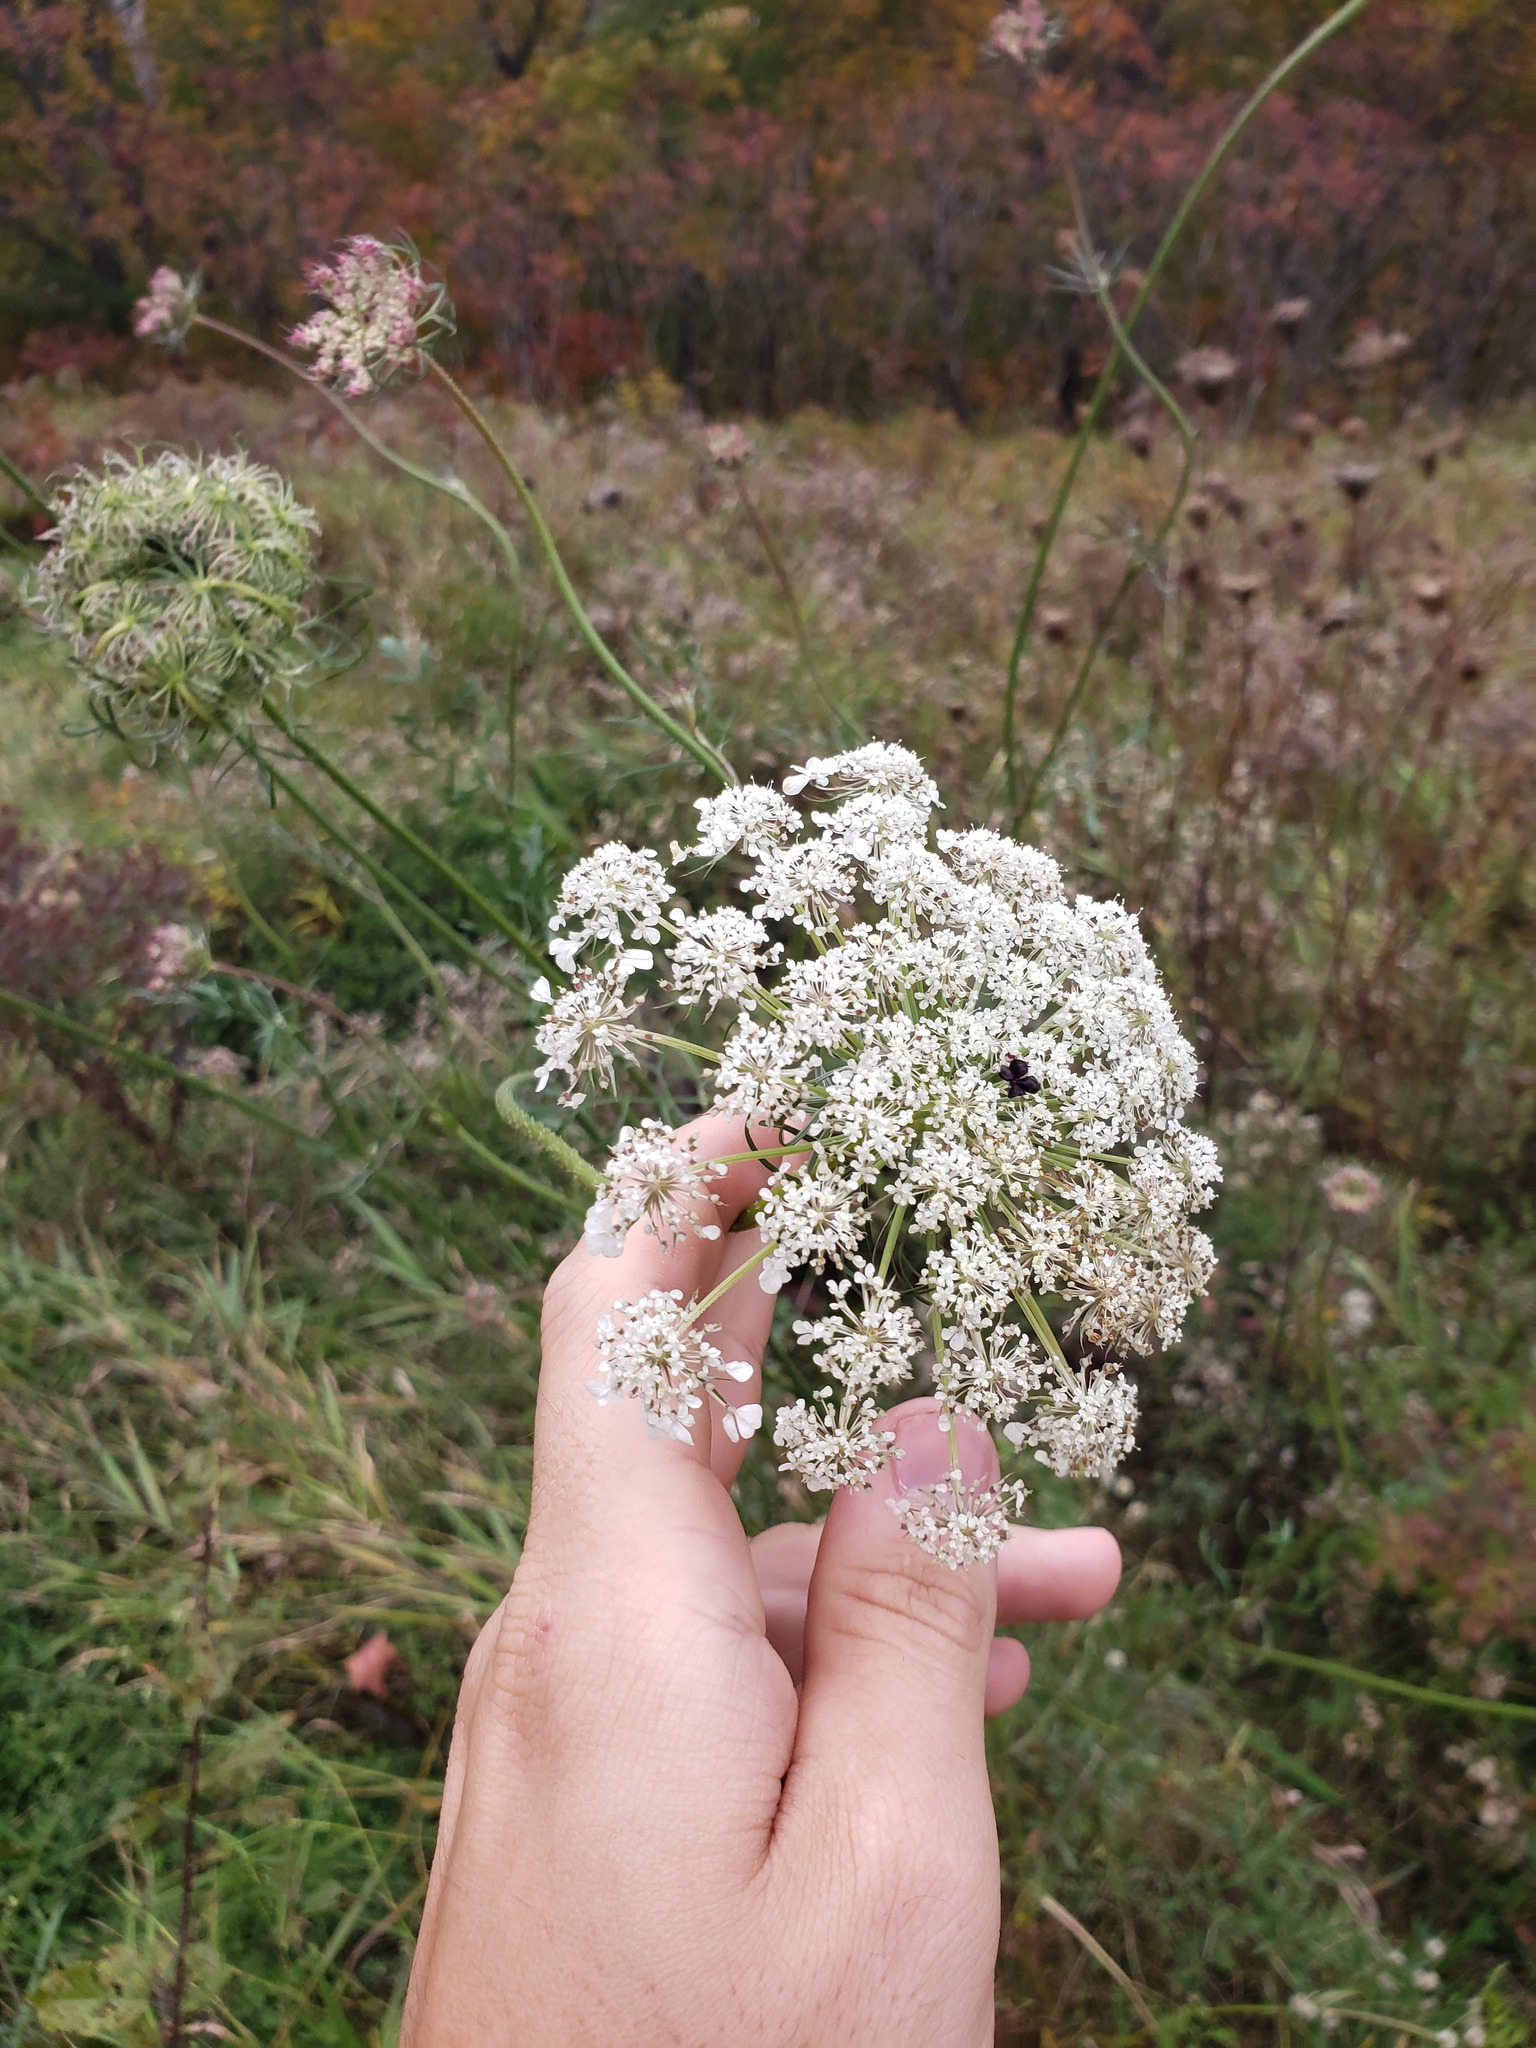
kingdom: Plantae
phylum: Tracheophyta
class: Magnoliopsida
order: Apiales
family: Apiaceae
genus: Daucus
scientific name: Daucus carota
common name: Wild carrot
